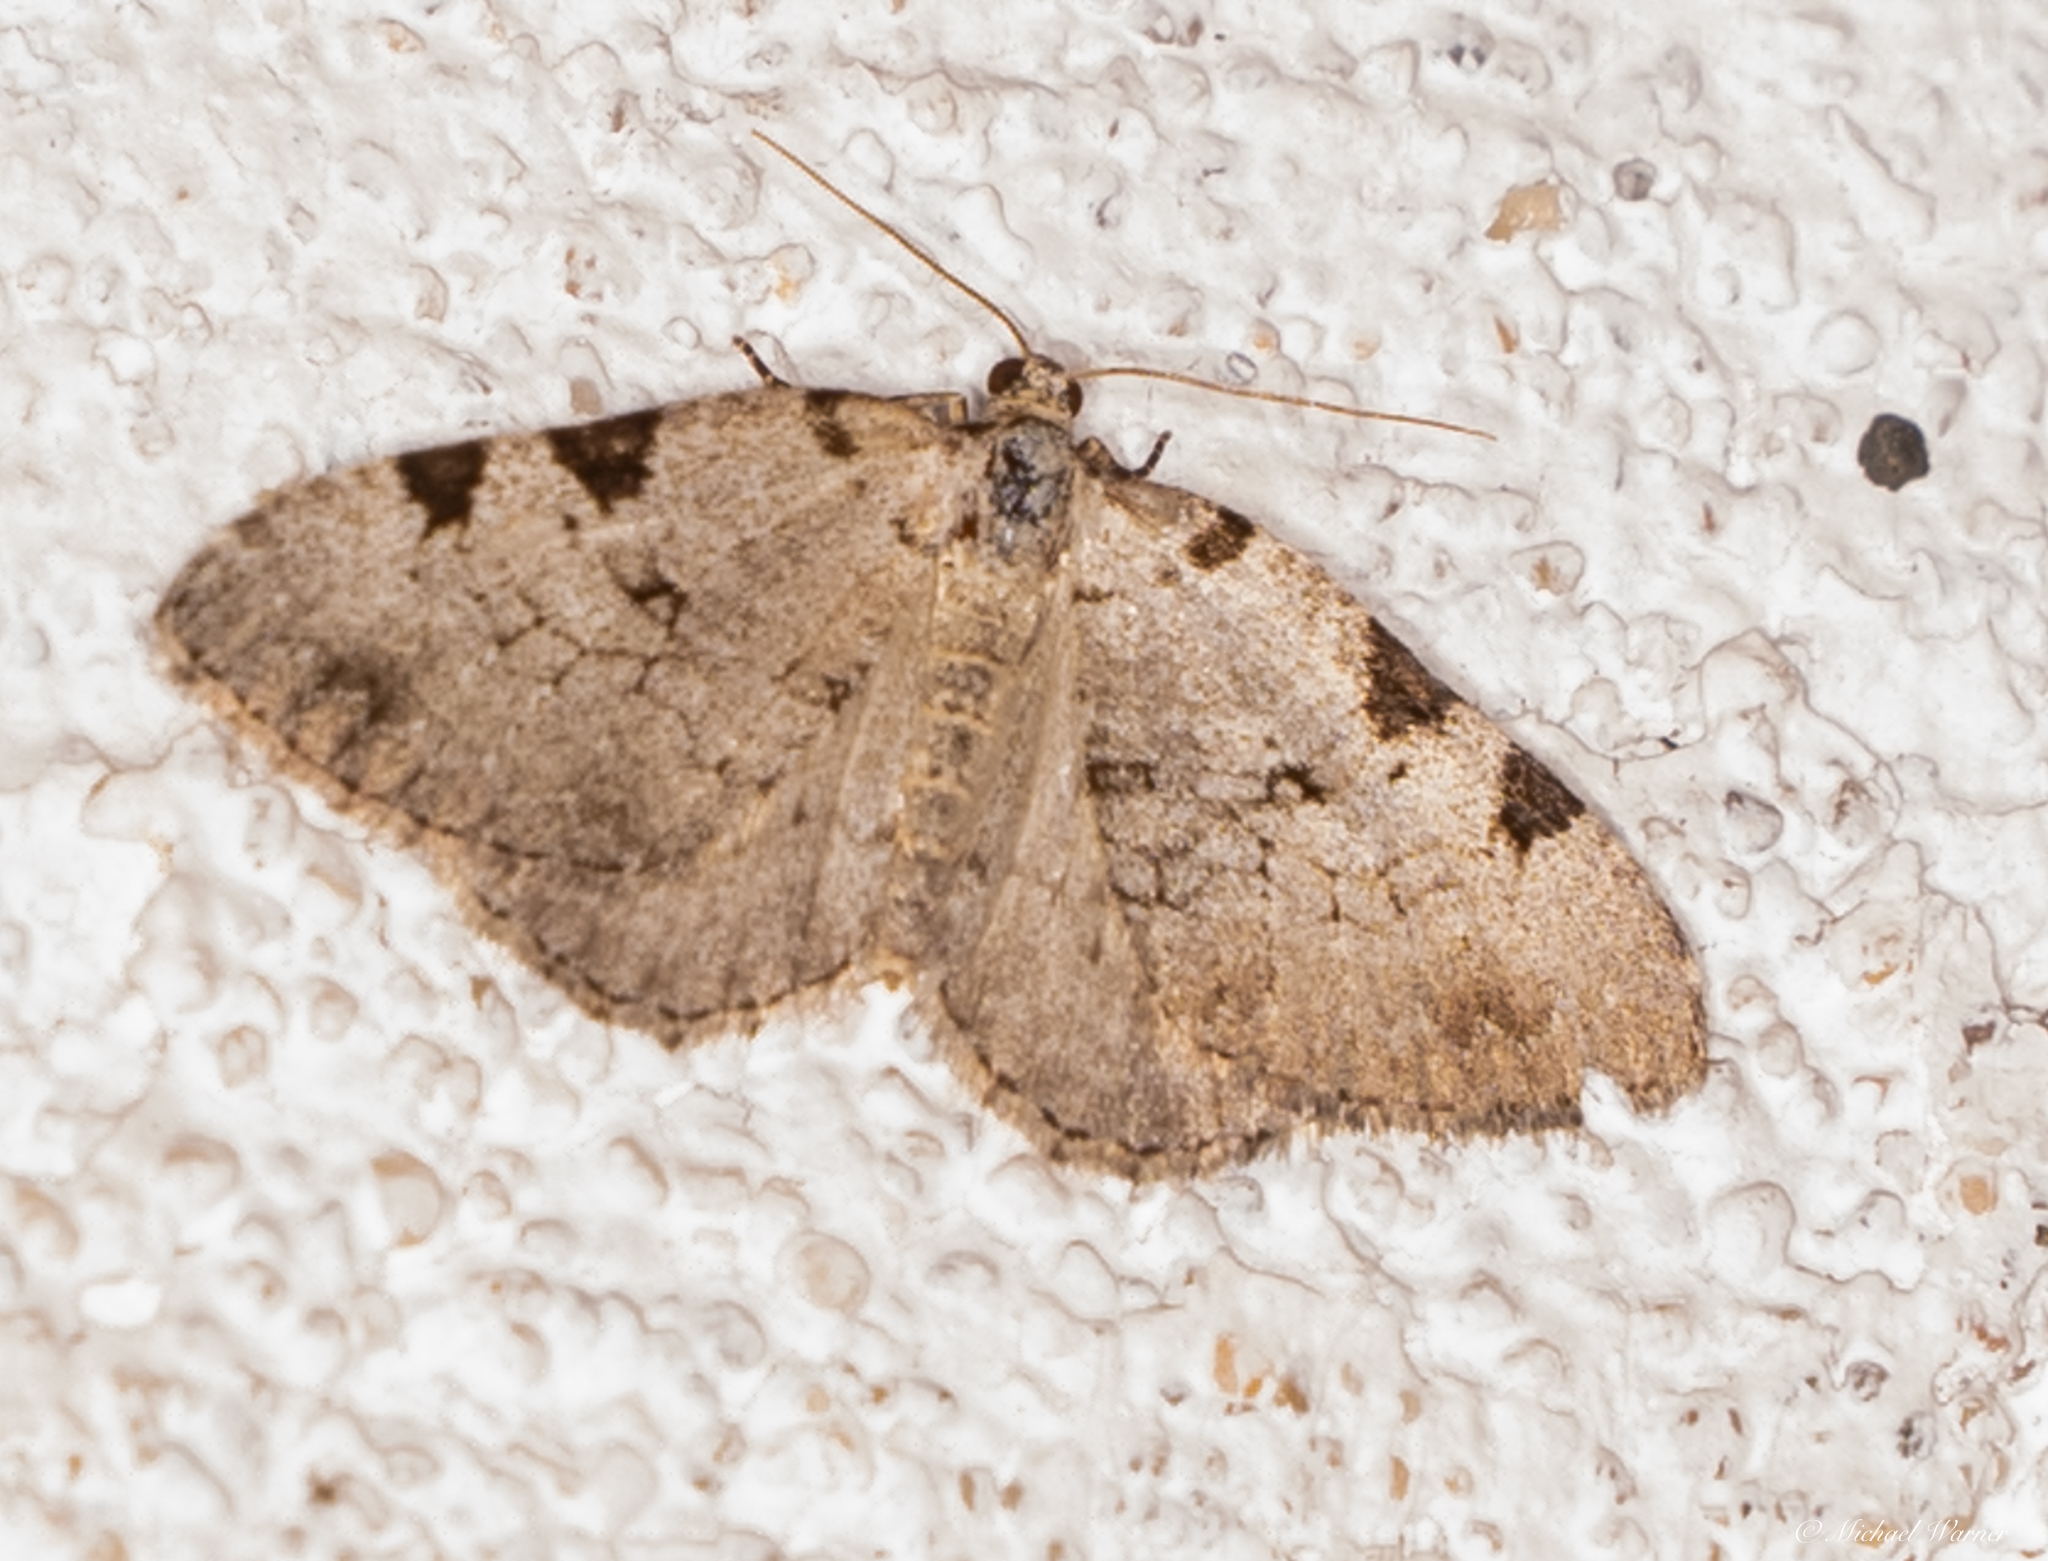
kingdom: Animalia
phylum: Arthropoda
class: Insecta
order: Lepidoptera
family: Geometridae
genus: Perizoma
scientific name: Perizoma costiguttata
